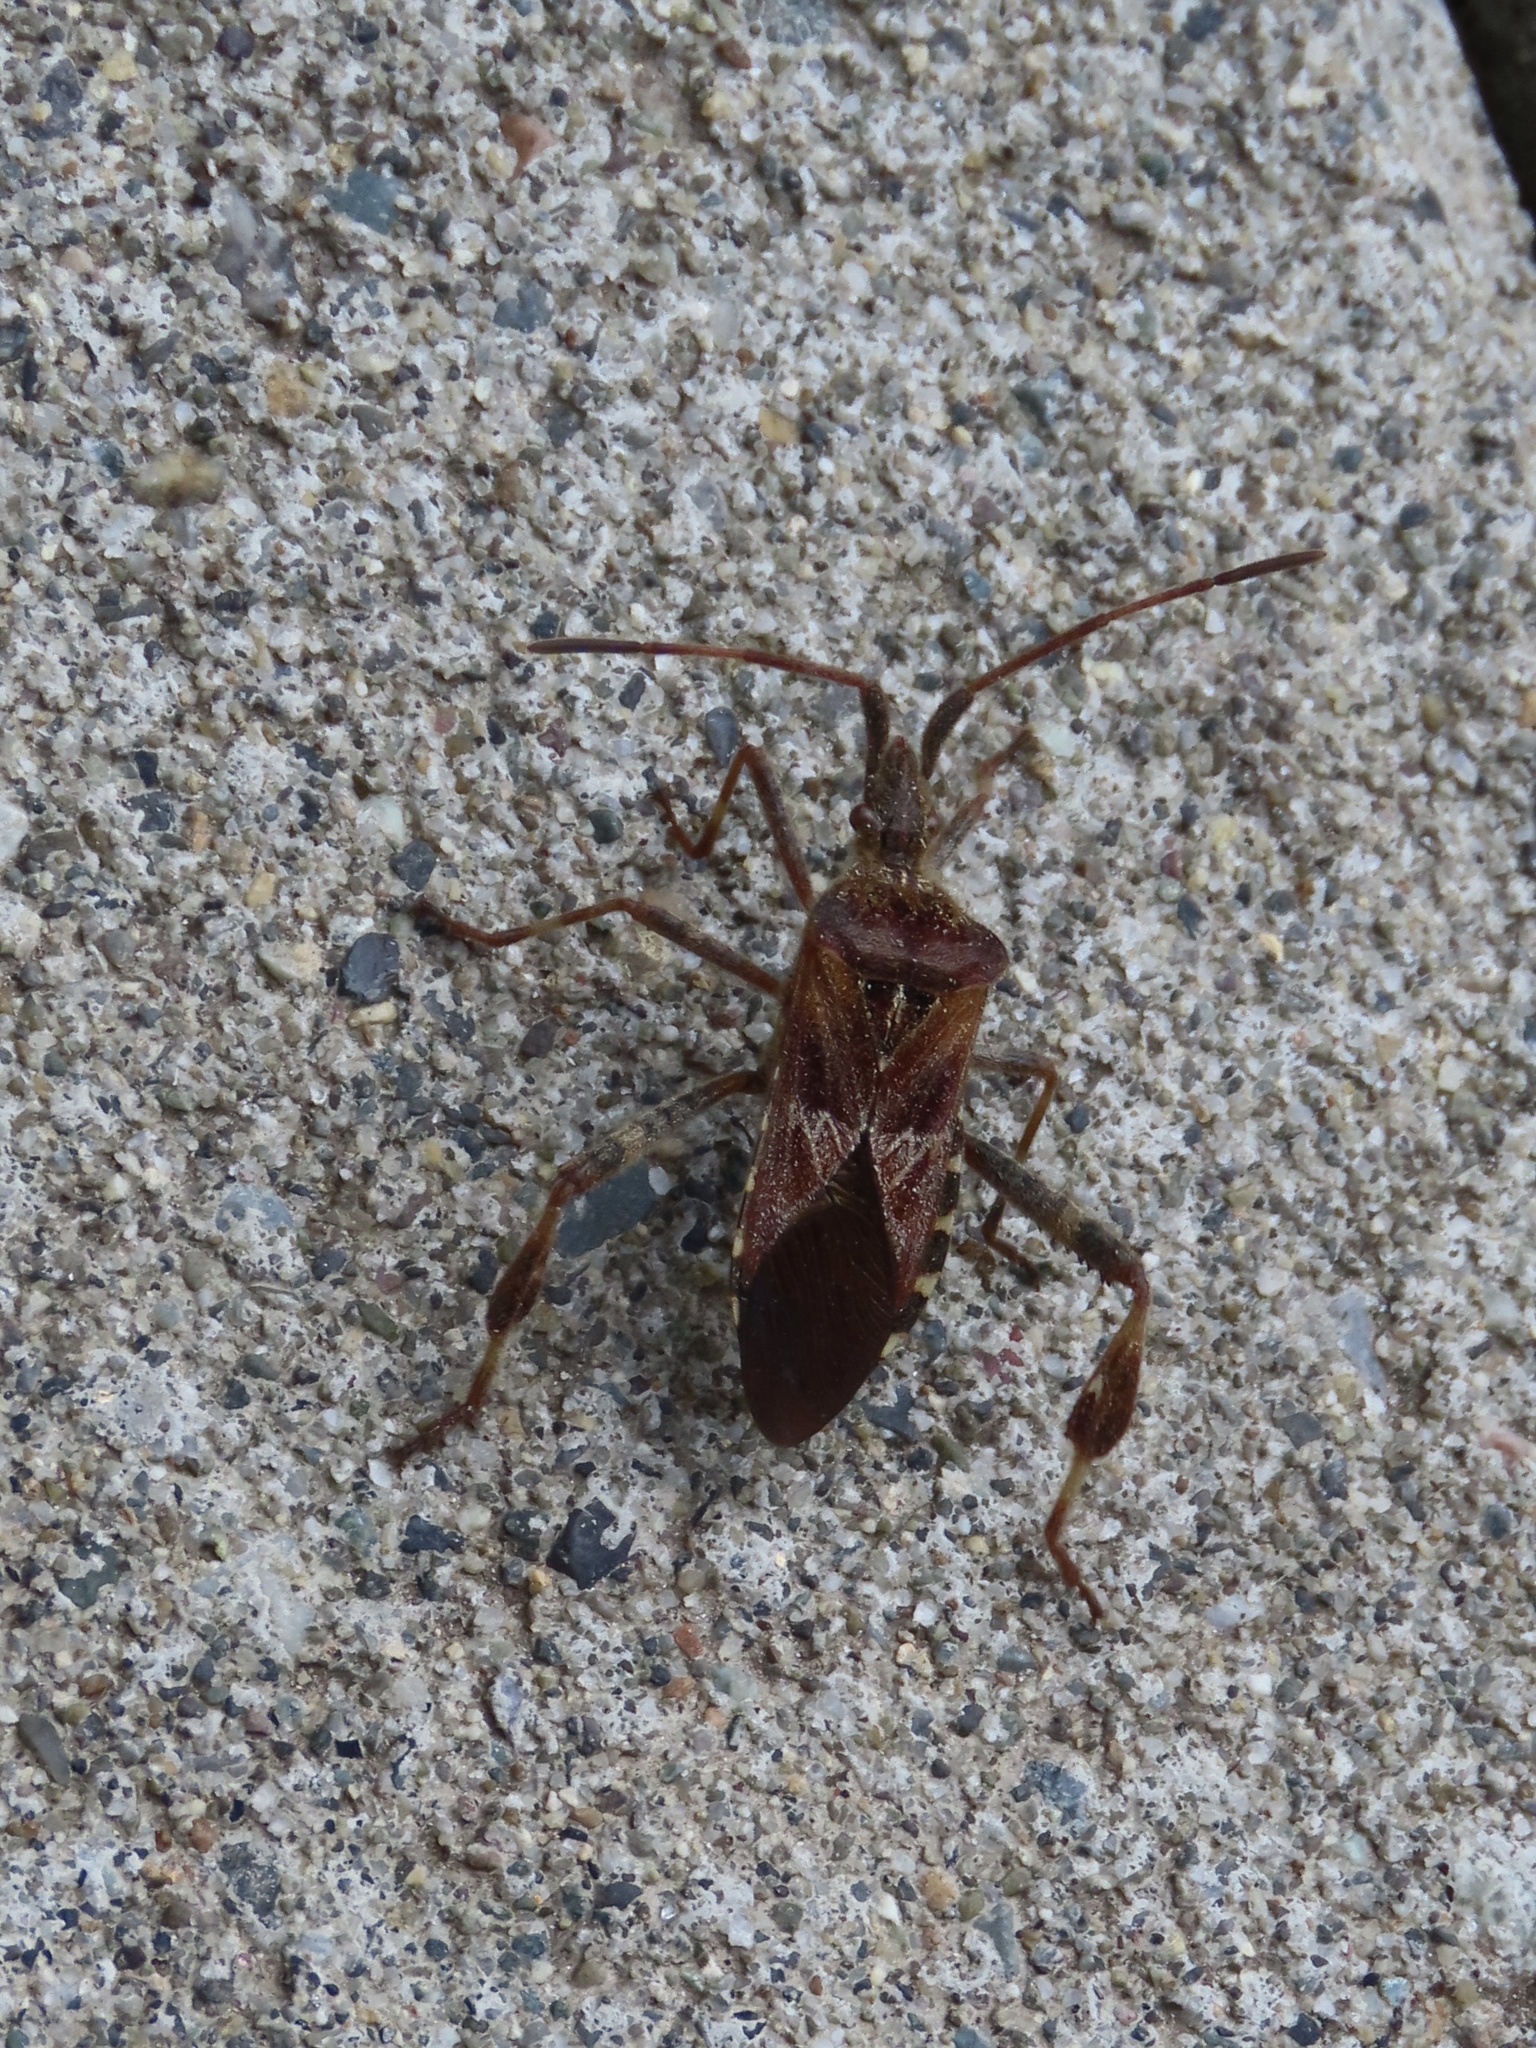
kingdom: Animalia
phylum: Arthropoda
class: Insecta
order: Hemiptera
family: Coreidae
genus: Leptoglossus
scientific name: Leptoglossus occidentalis
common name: Western conifer-seed bug
